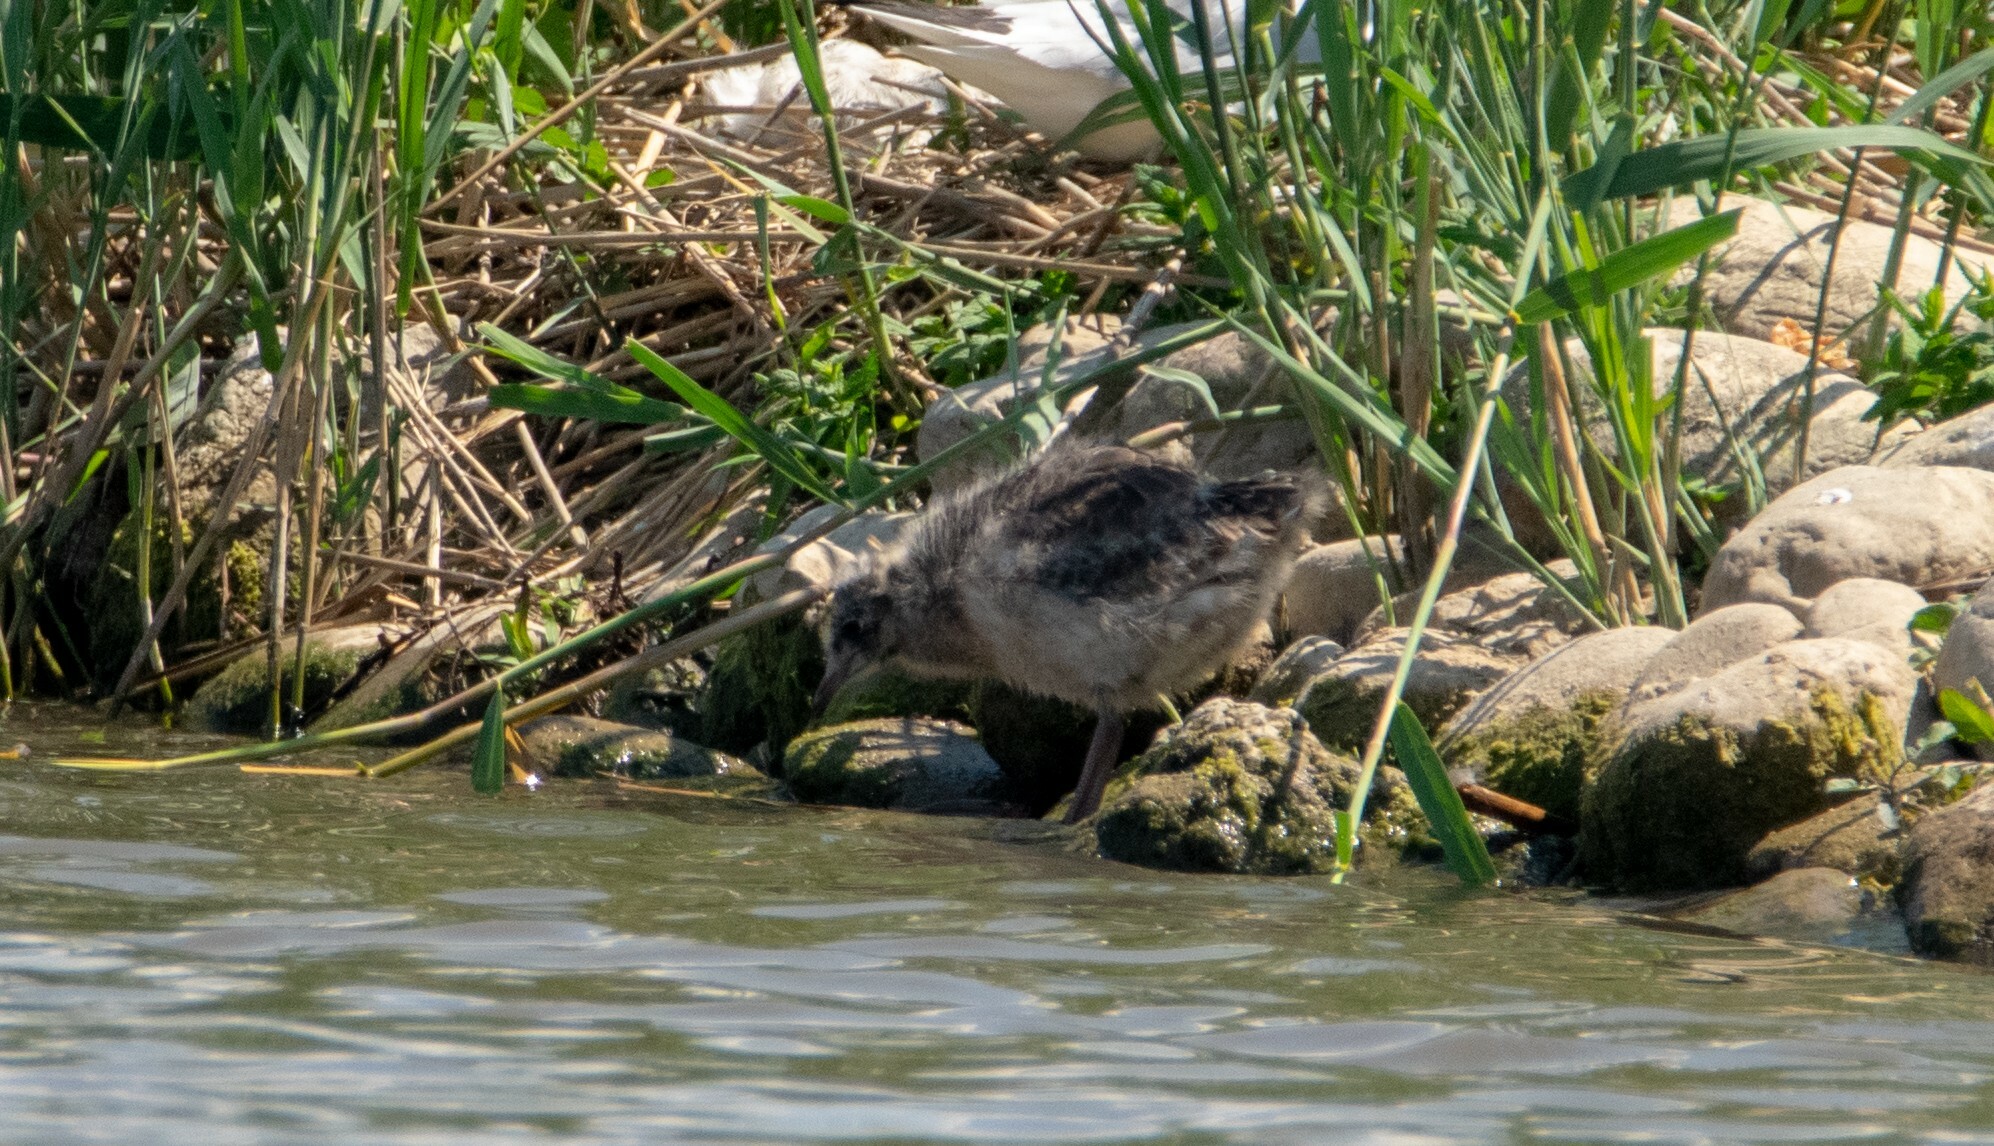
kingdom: Animalia
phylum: Chordata
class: Aves
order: Charadriiformes
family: Laridae
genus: Chroicocephalus
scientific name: Chroicocephalus ridibundus
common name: Black-headed gull
